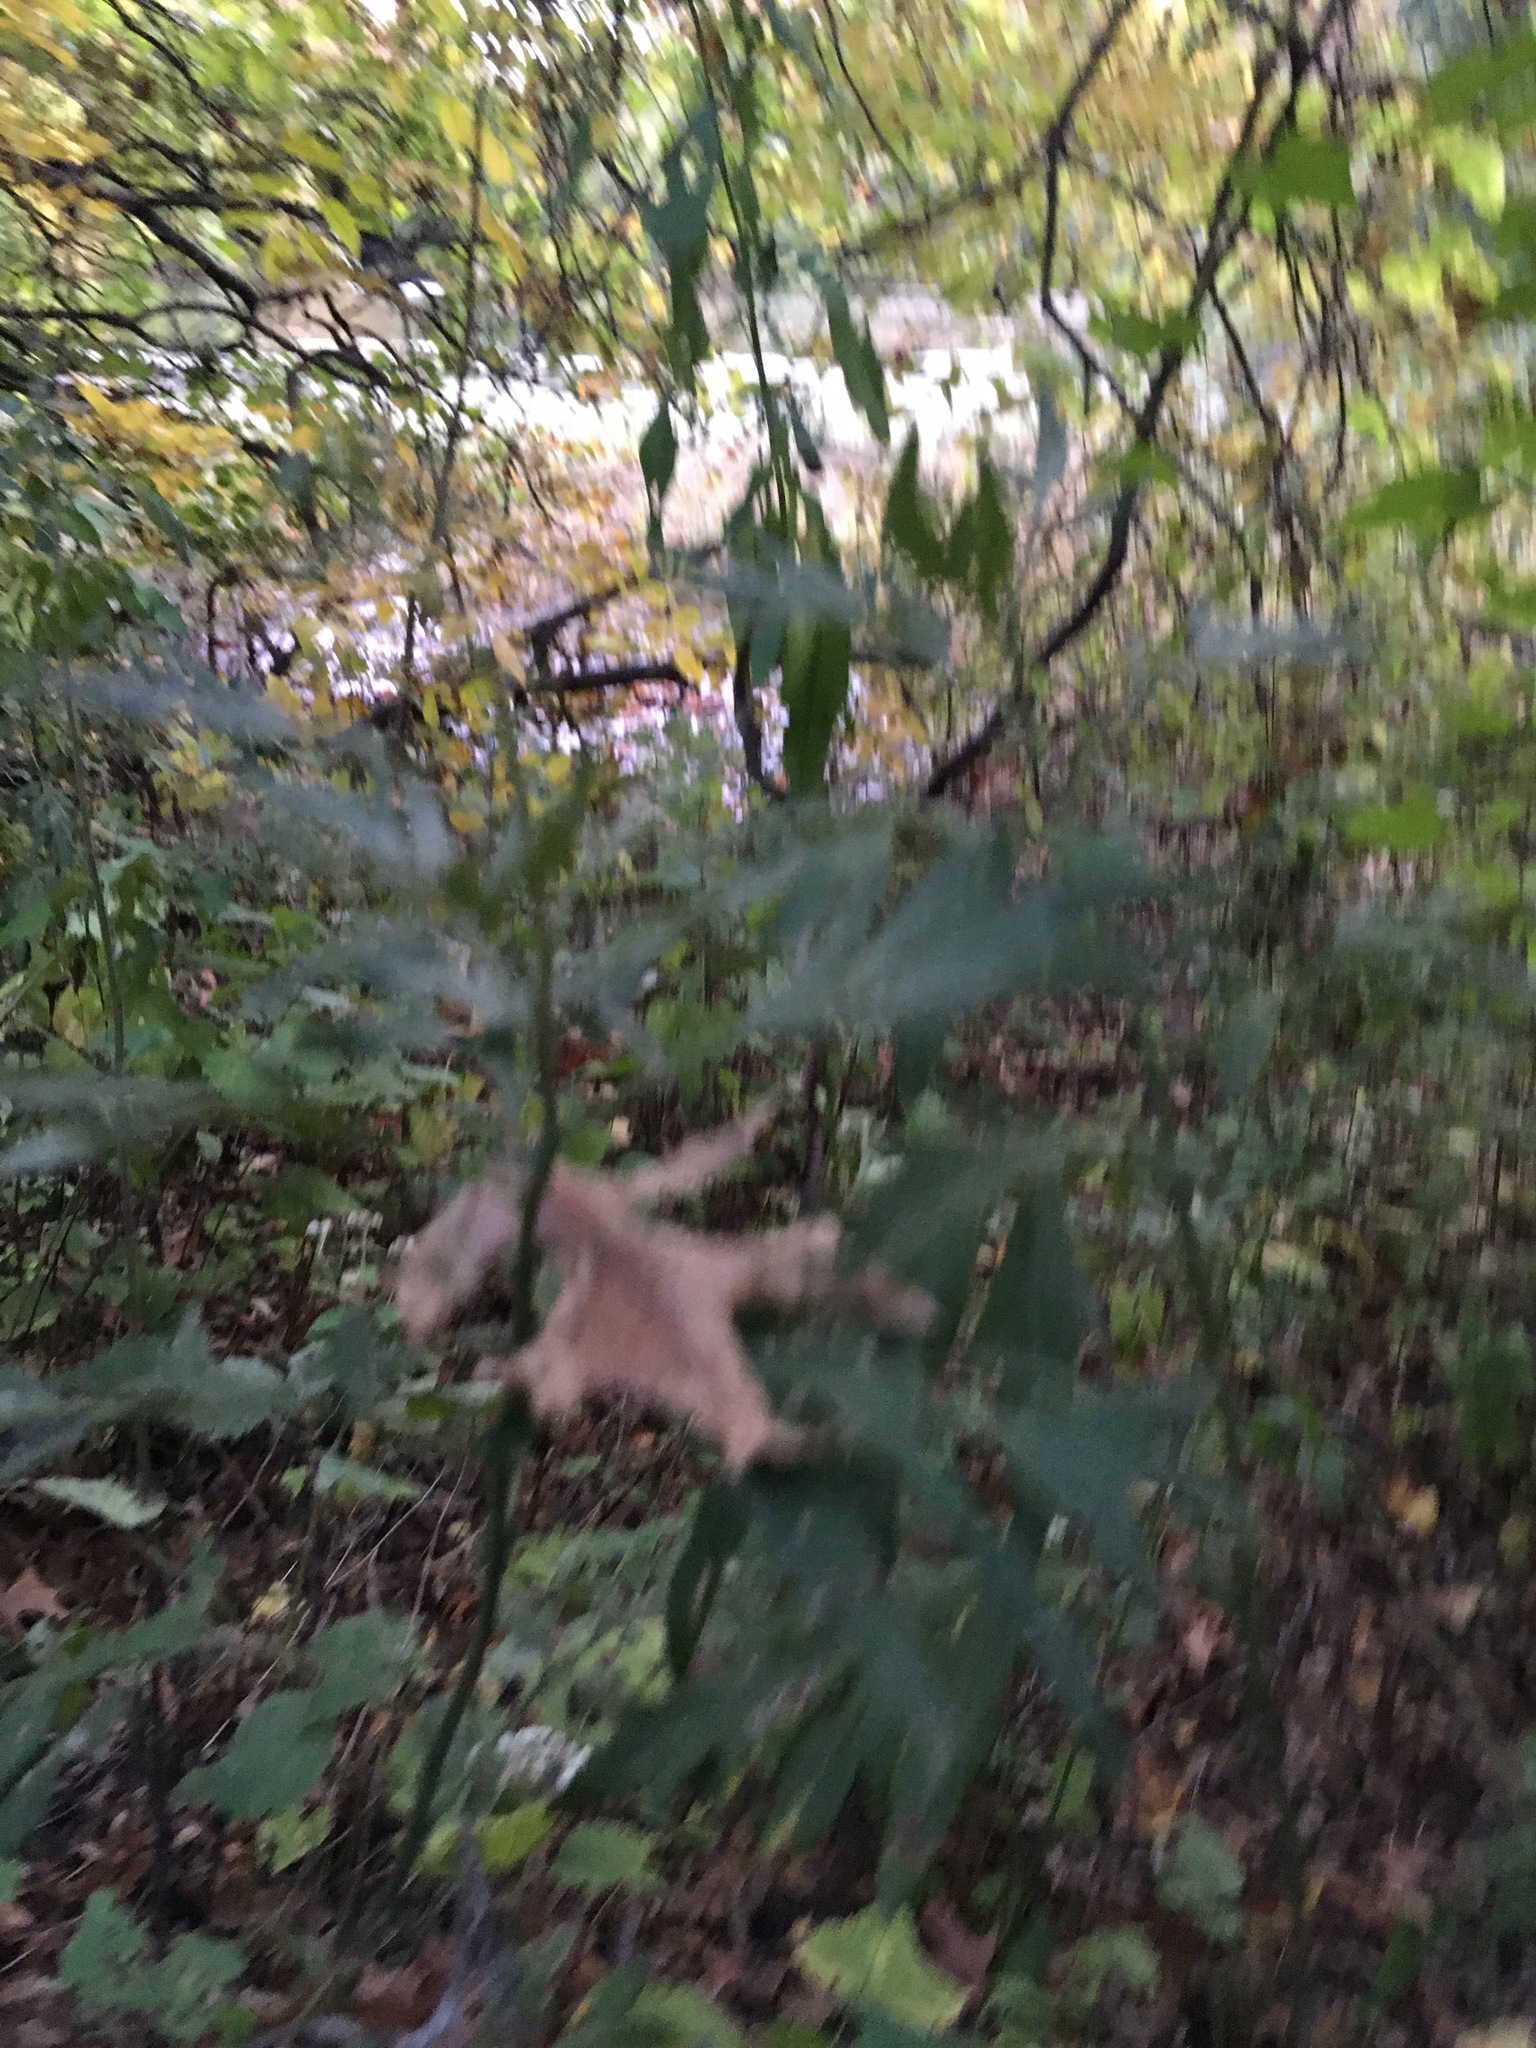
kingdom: Plantae
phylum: Tracheophyta
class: Magnoliopsida
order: Asterales
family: Asteraceae
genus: Artemisia
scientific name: Artemisia vulgaris
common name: Mugwort
